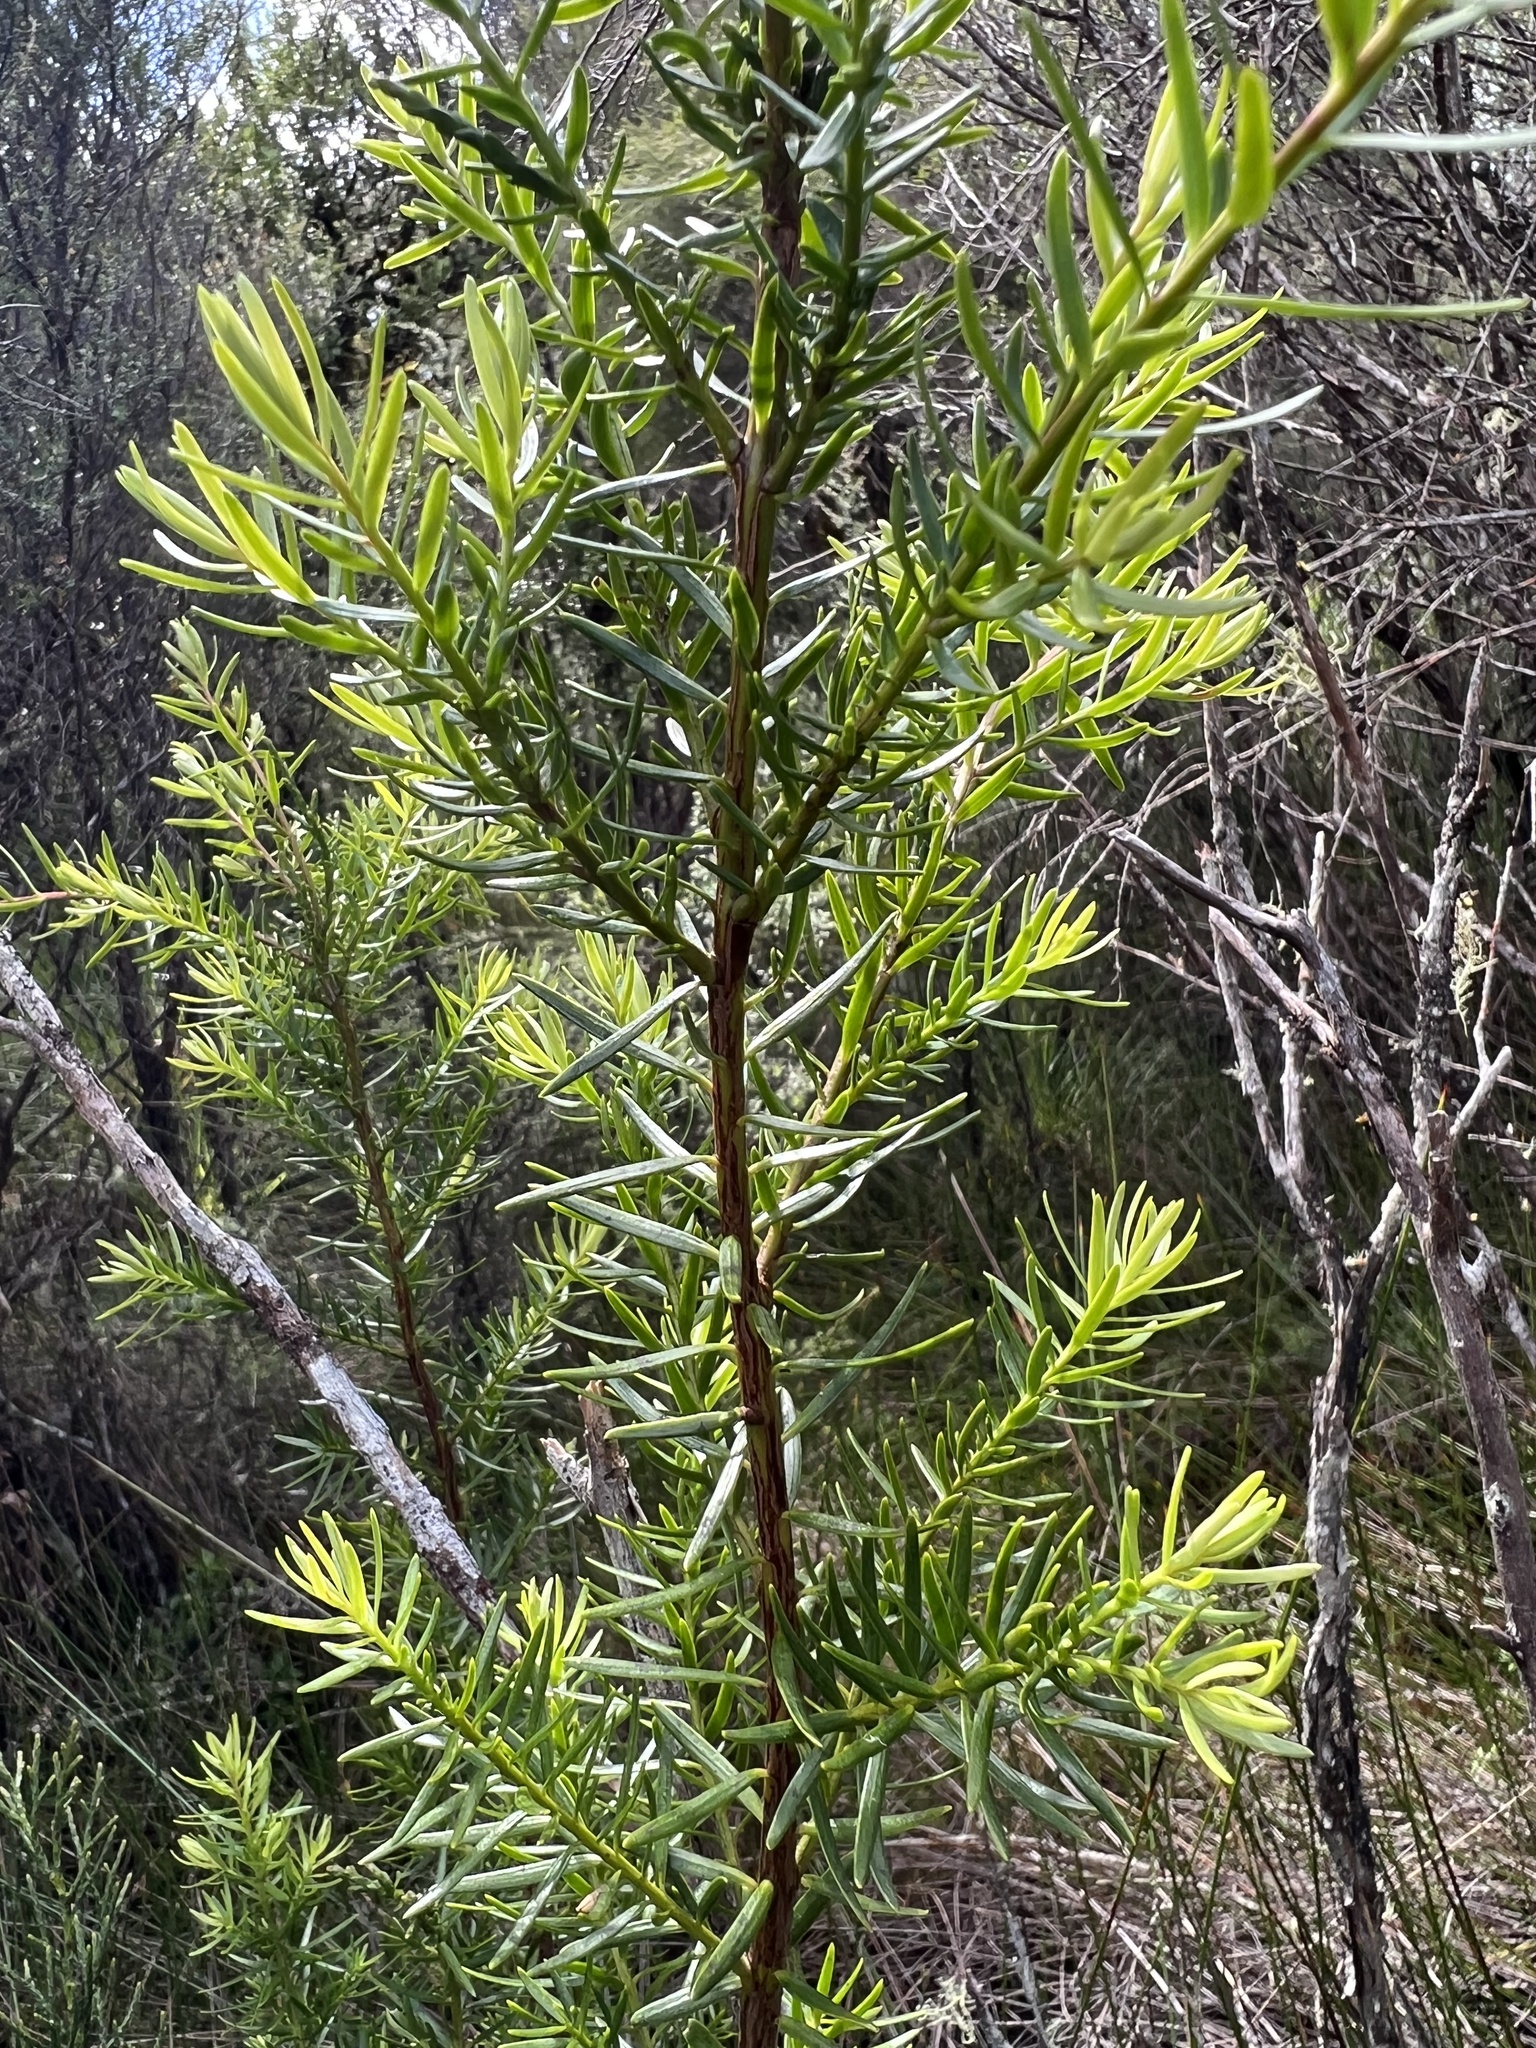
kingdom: Plantae
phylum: Tracheophyta
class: Pinopsida
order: Pinales
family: Podocarpaceae
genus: Halocarpus
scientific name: Halocarpus biformis
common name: Alpine tarwood
